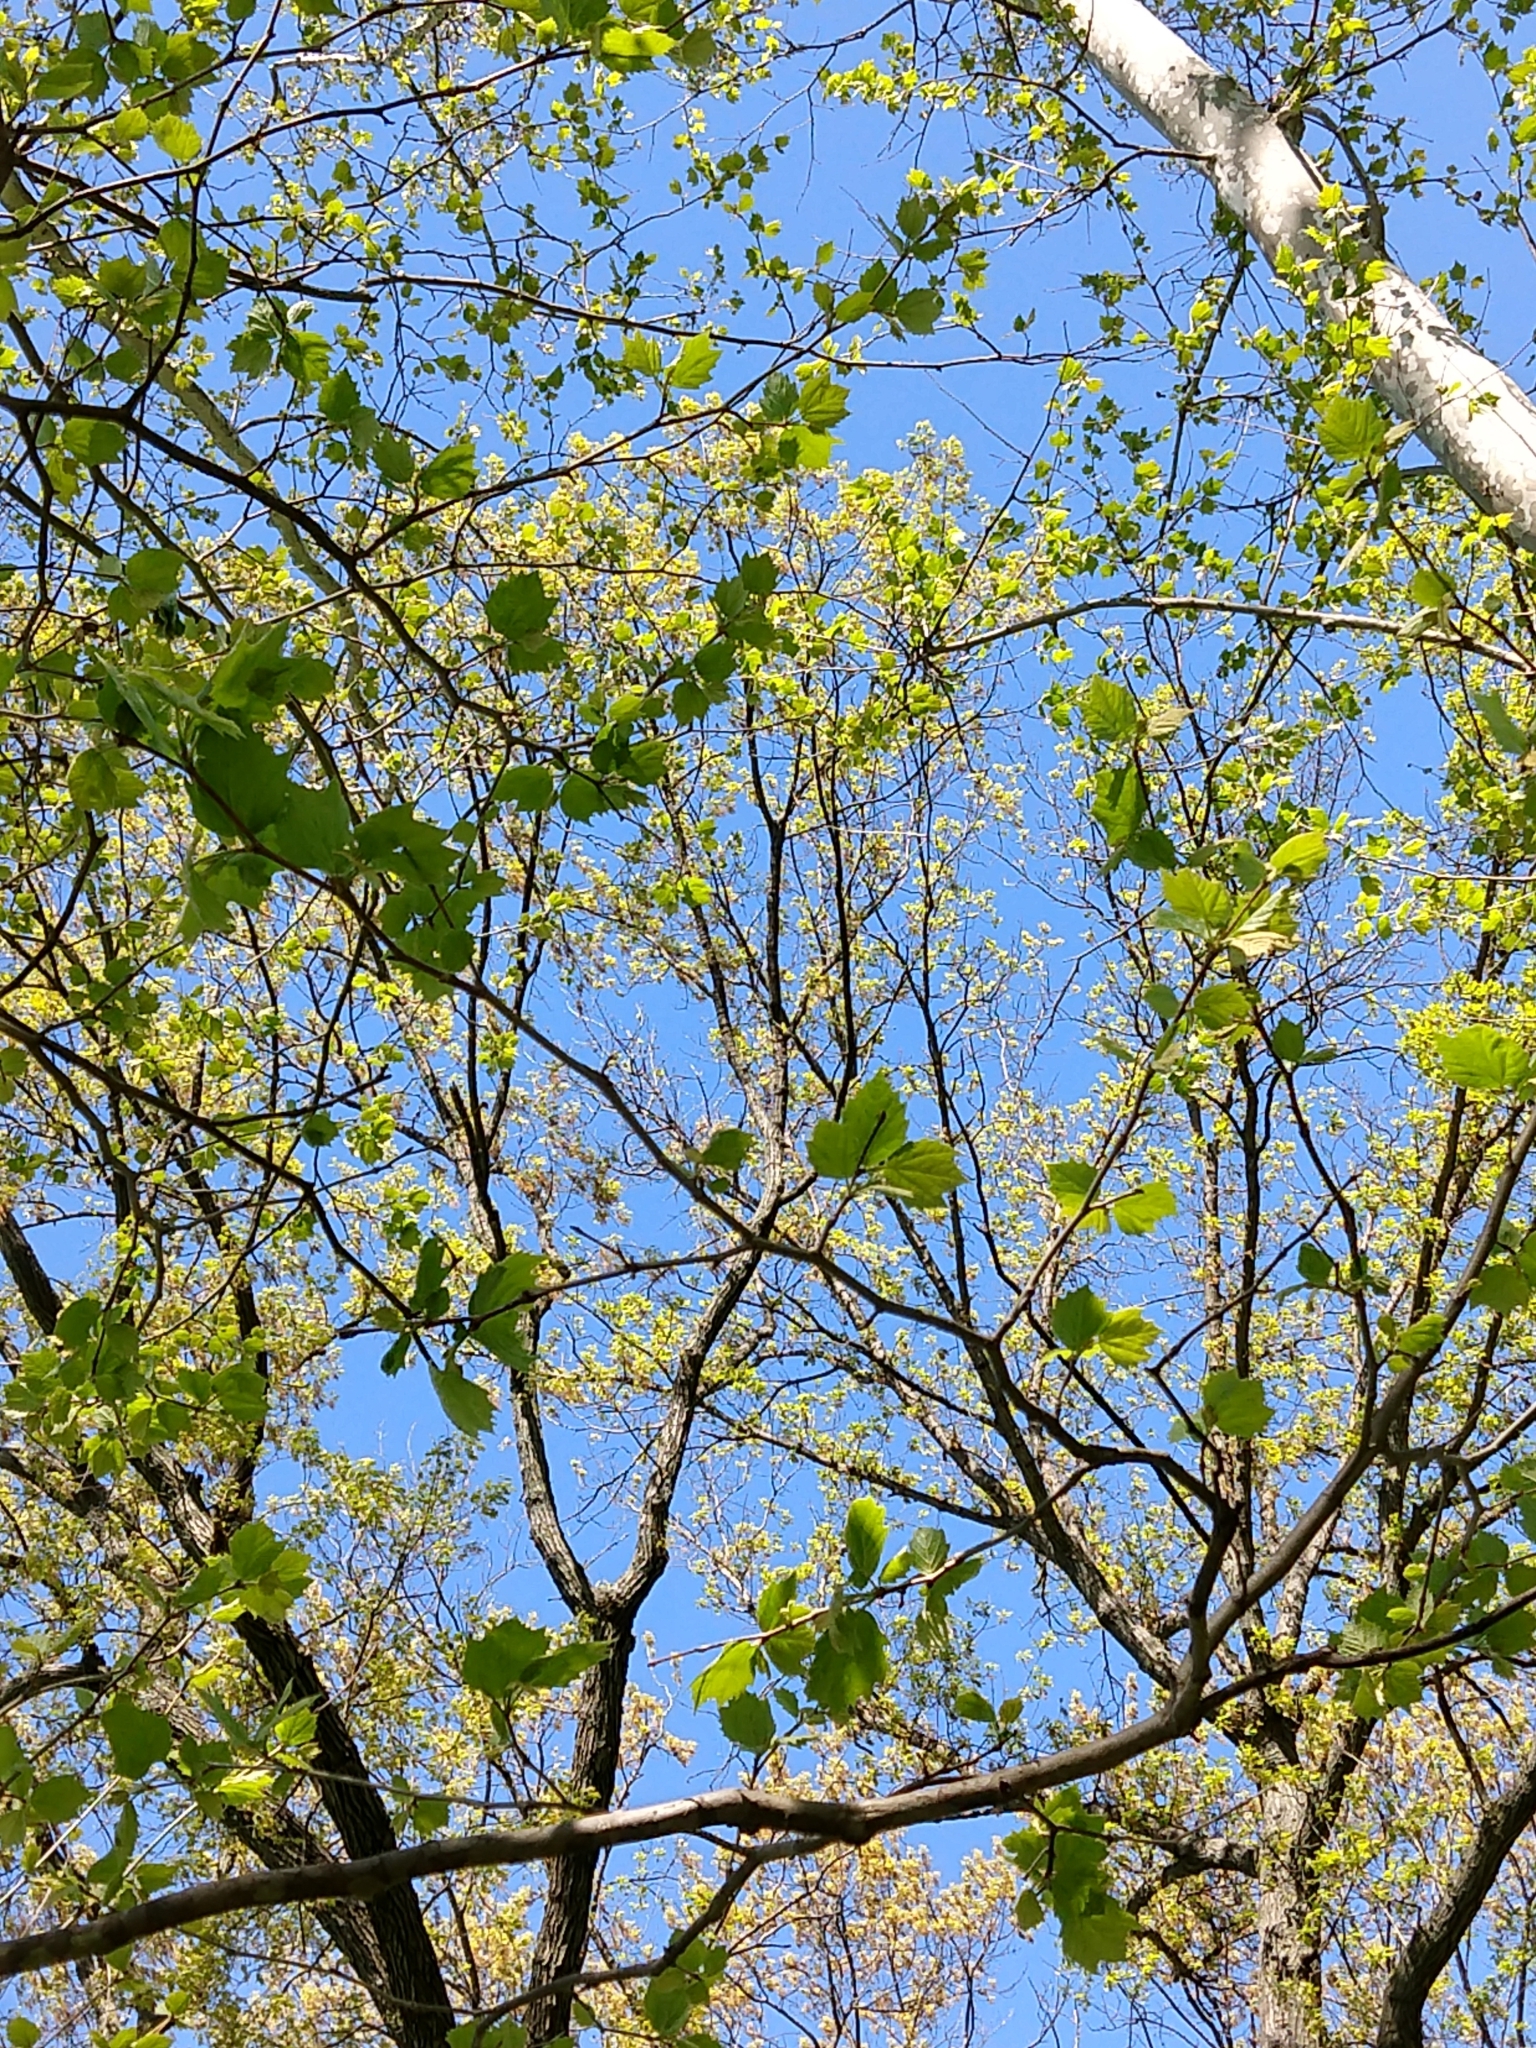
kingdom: Plantae
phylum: Tracheophyta
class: Magnoliopsida
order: Proteales
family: Platanaceae
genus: Platanus
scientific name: Platanus occidentalis
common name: American sycamore
